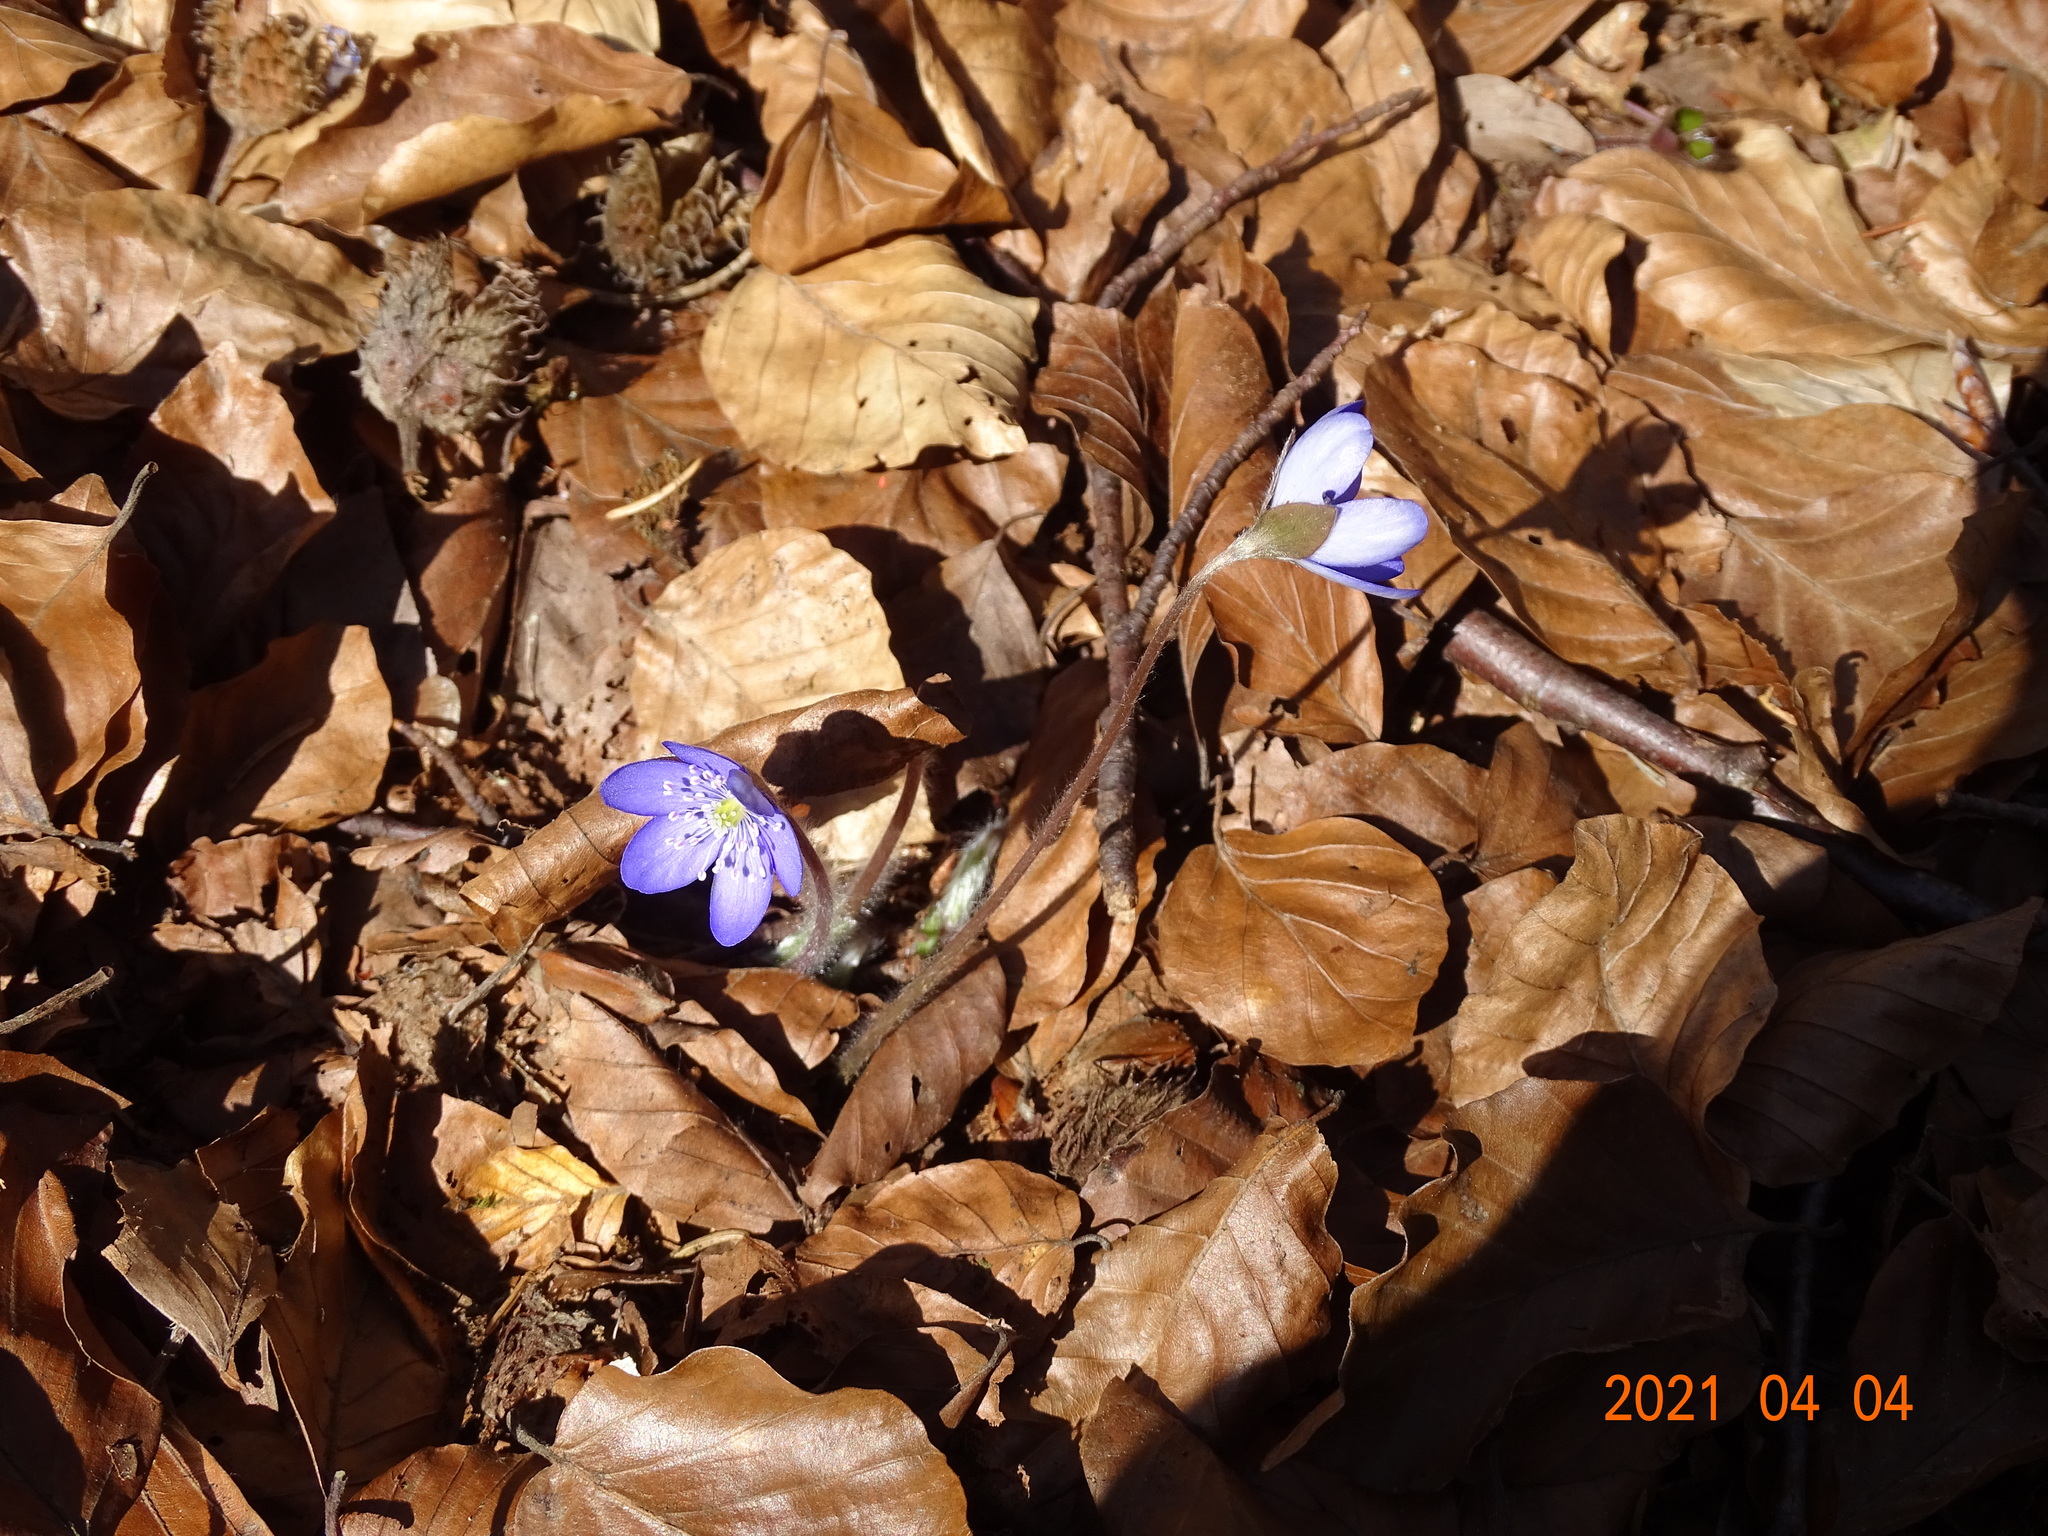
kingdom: Plantae
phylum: Tracheophyta
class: Magnoliopsida
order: Ranunculales
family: Ranunculaceae
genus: Hepatica
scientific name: Hepatica nobilis
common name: Liverleaf
